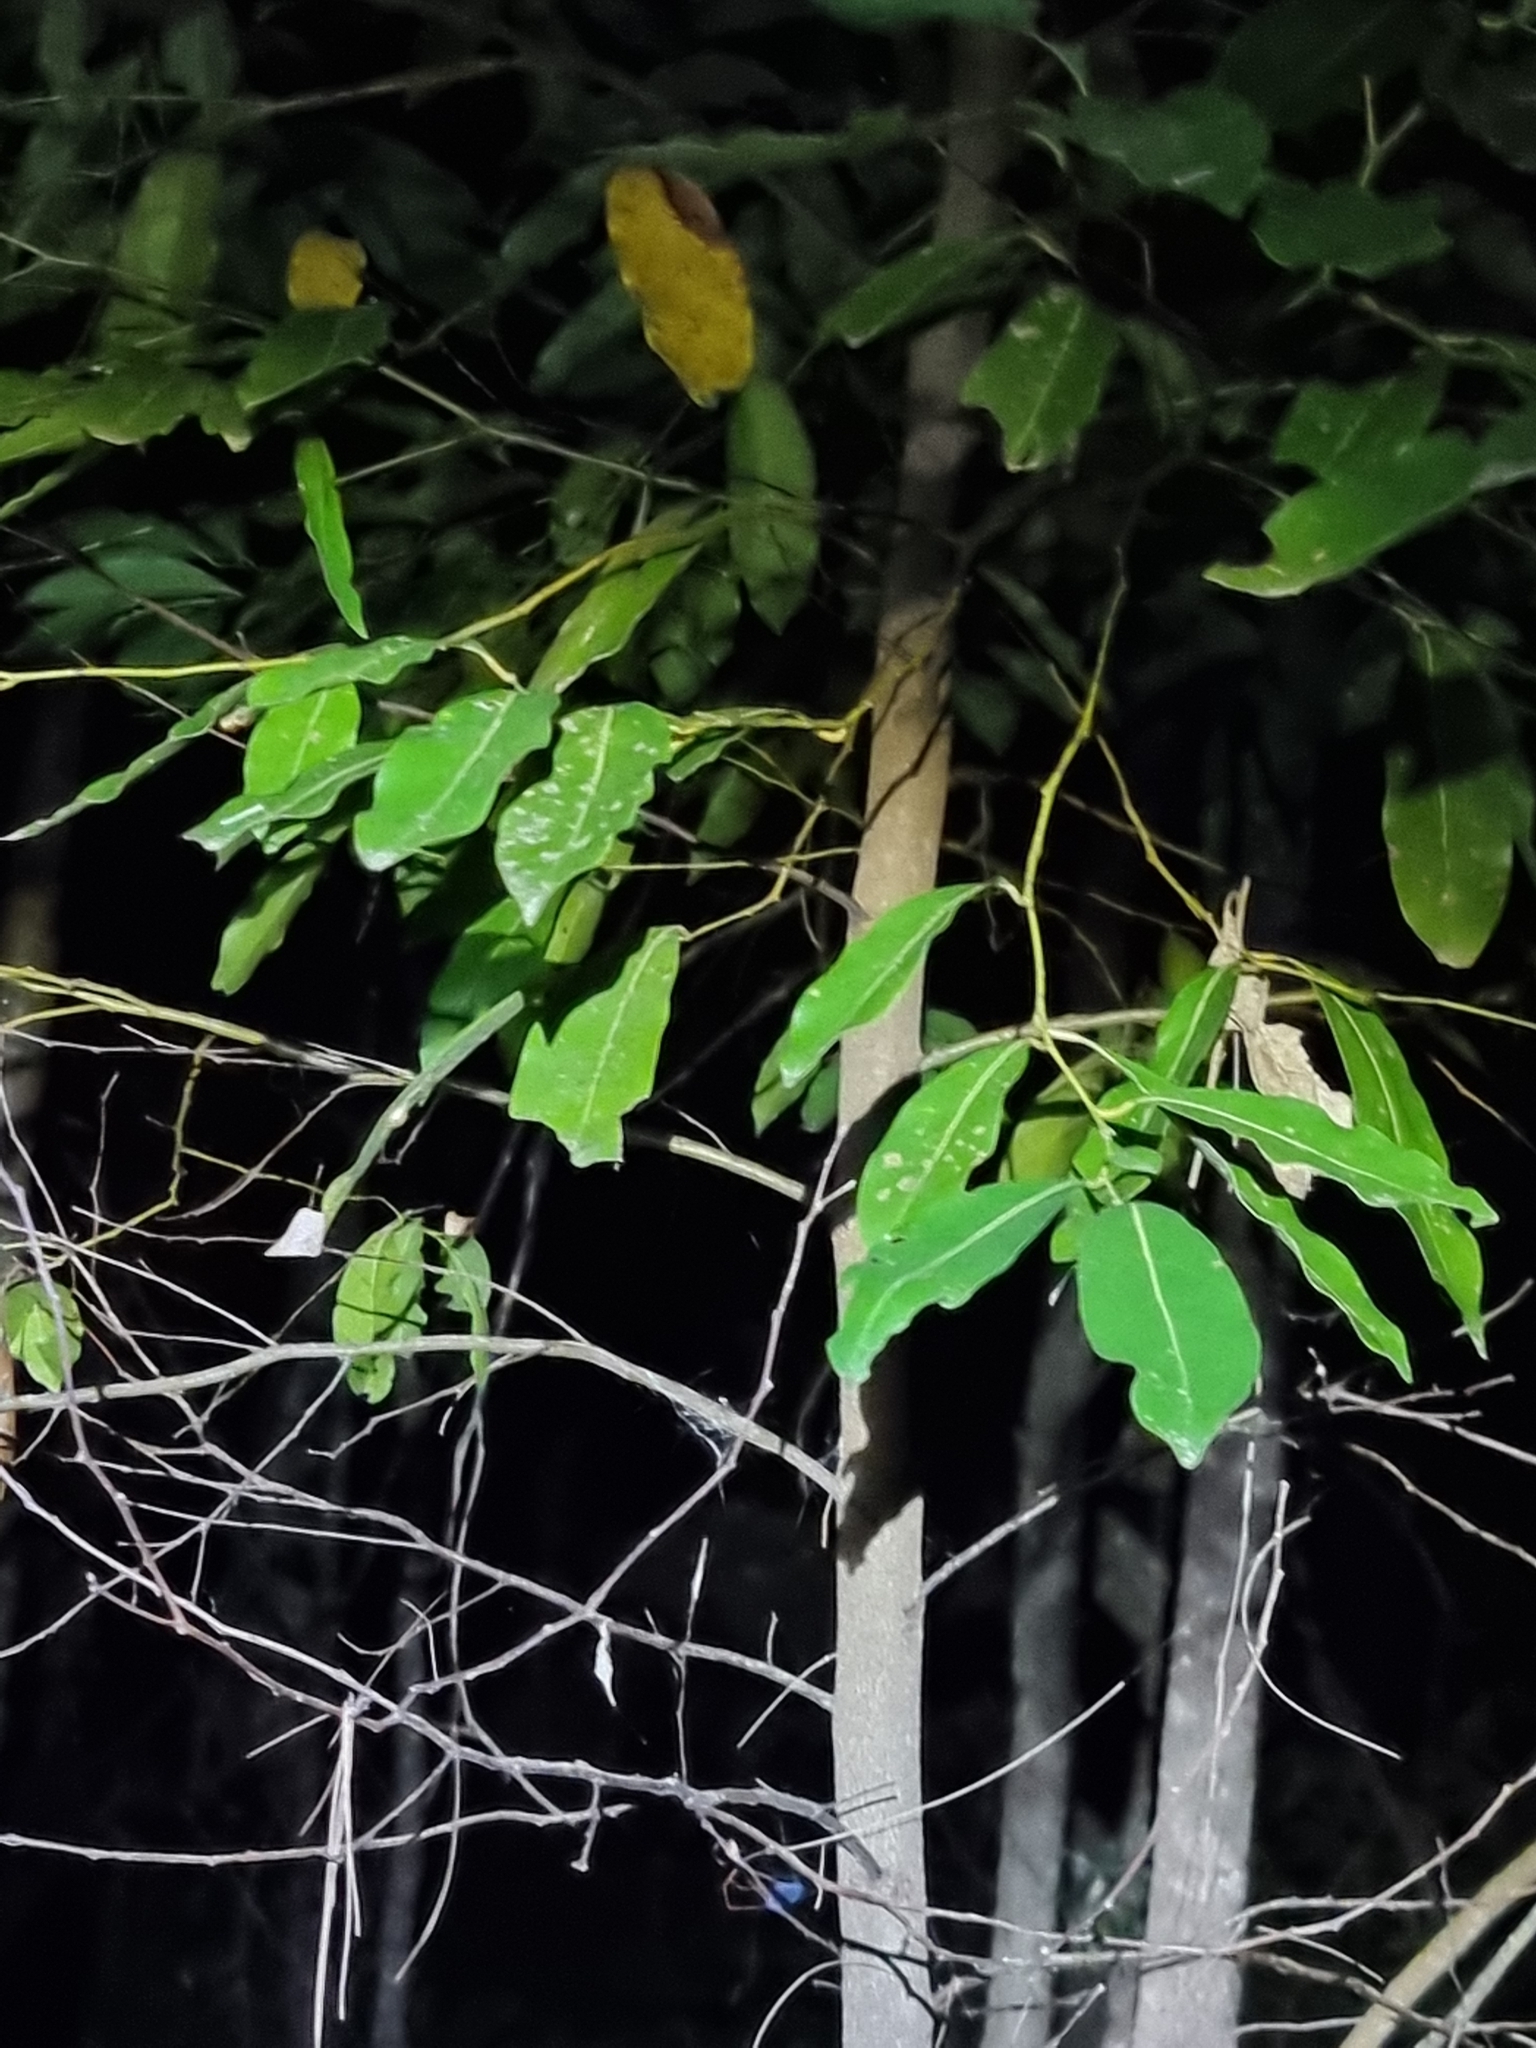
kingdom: Plantae
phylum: Tracheophyta
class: Magnoliopsida
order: Laurales
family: Lauraceae
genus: Cryptocarya
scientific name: Cryptocarya microneura
